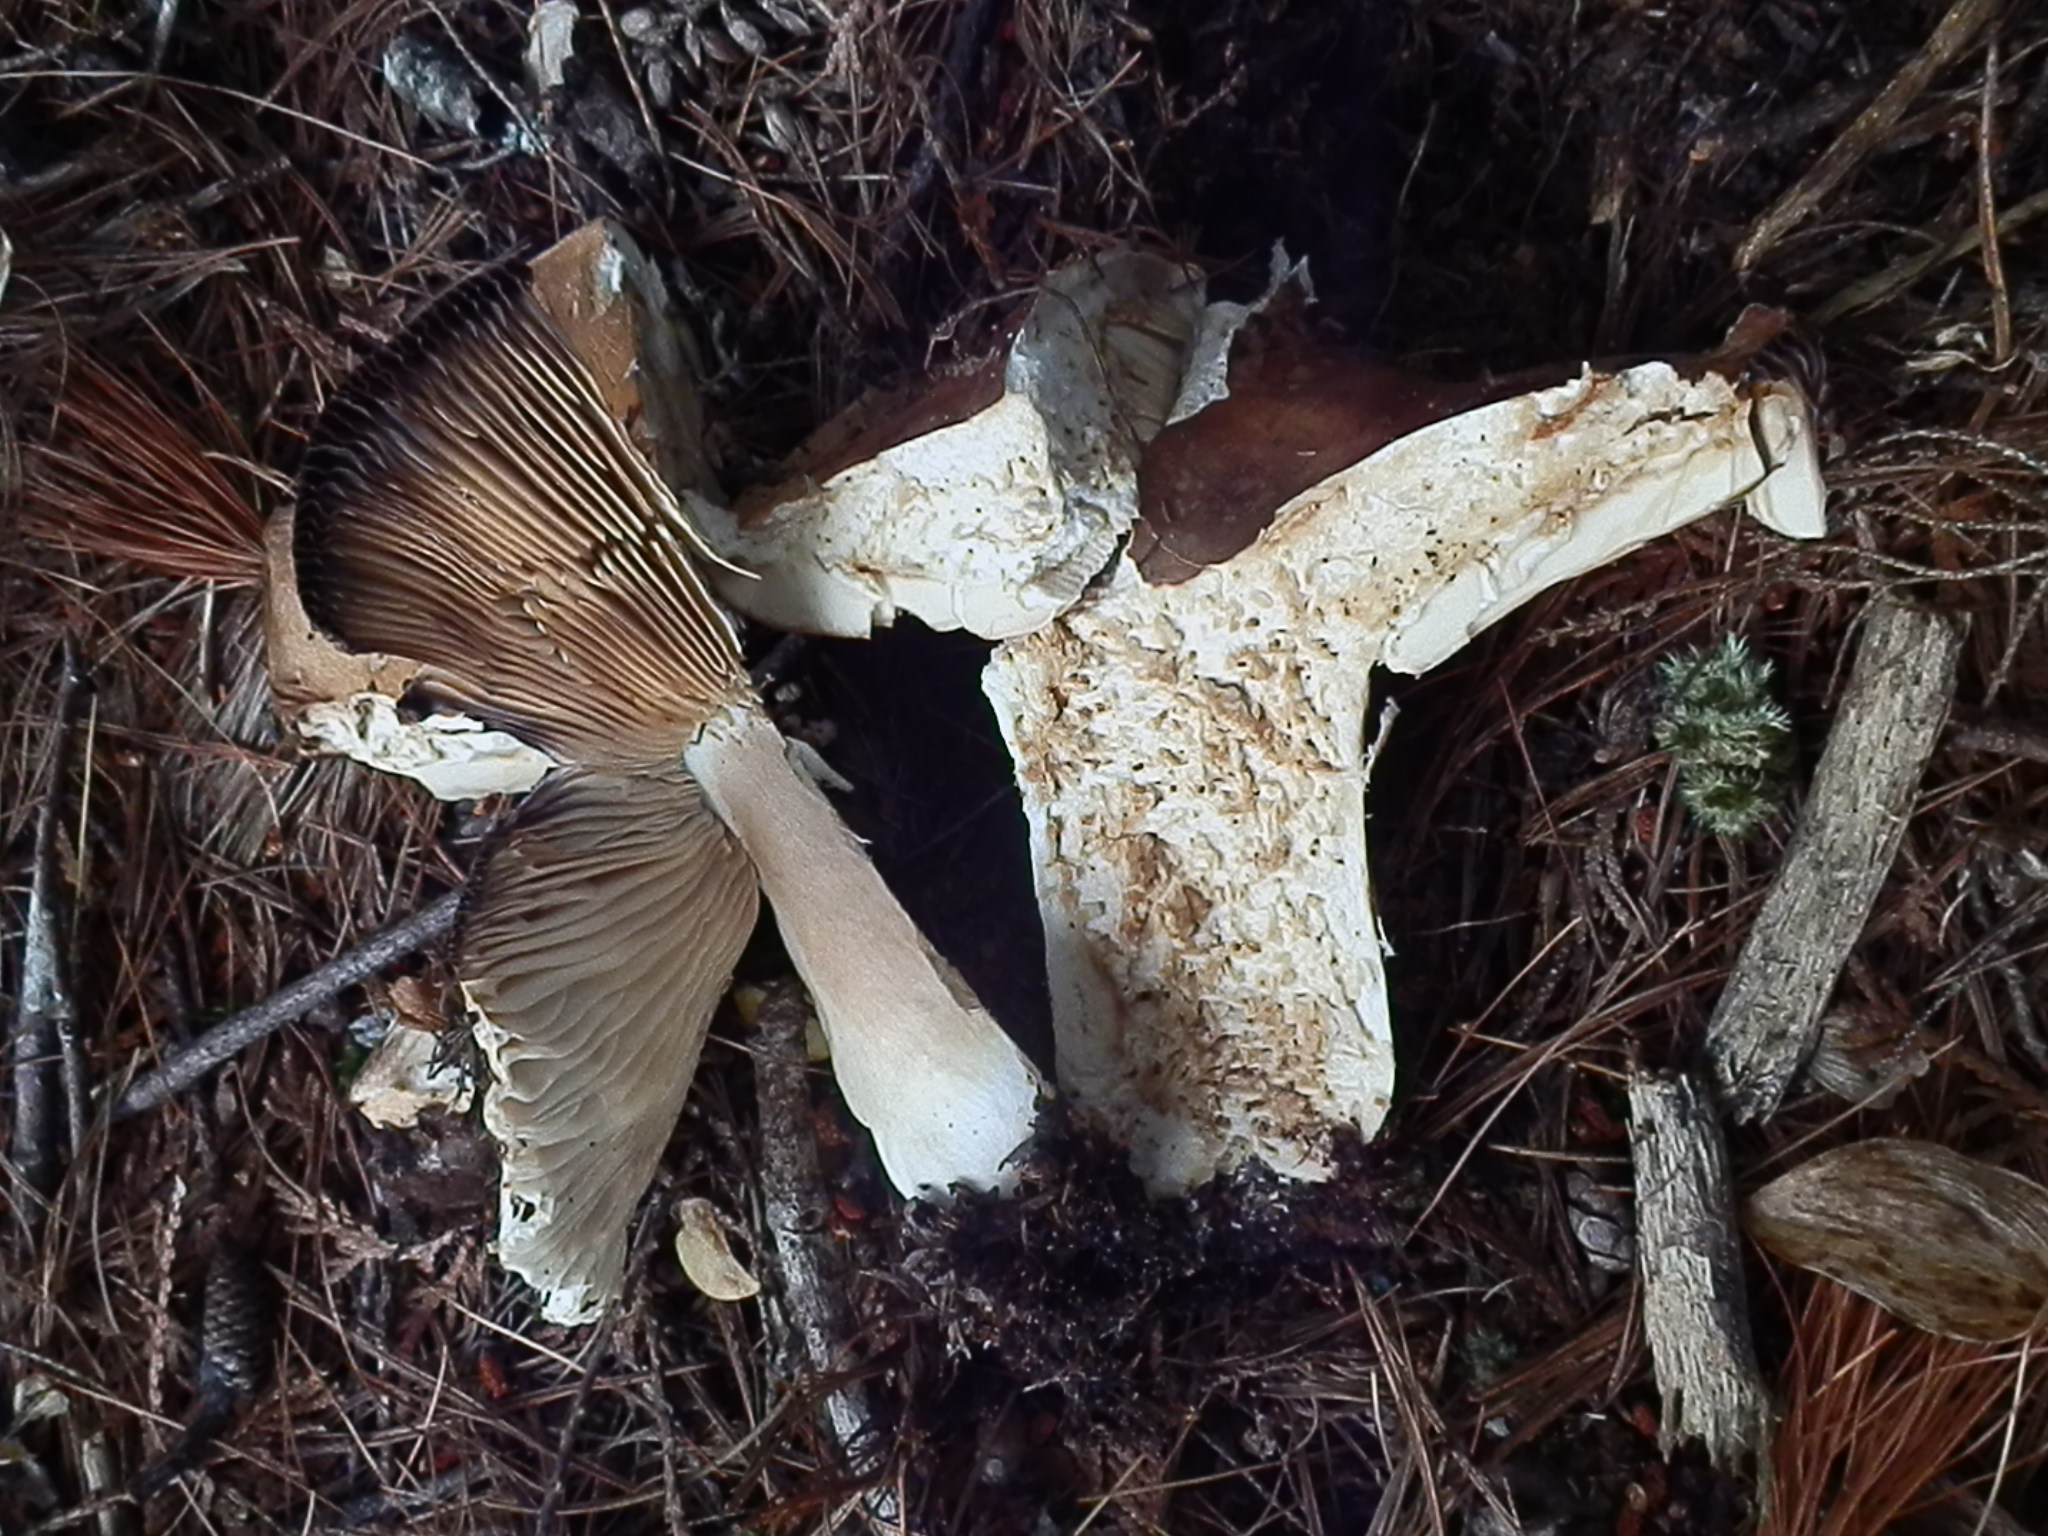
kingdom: Fungi
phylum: Basidiomycota
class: Agaricomycetes
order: Russulales
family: Russulaceae
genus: Russula
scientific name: Russula compacta
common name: Fishbiscuit russula
